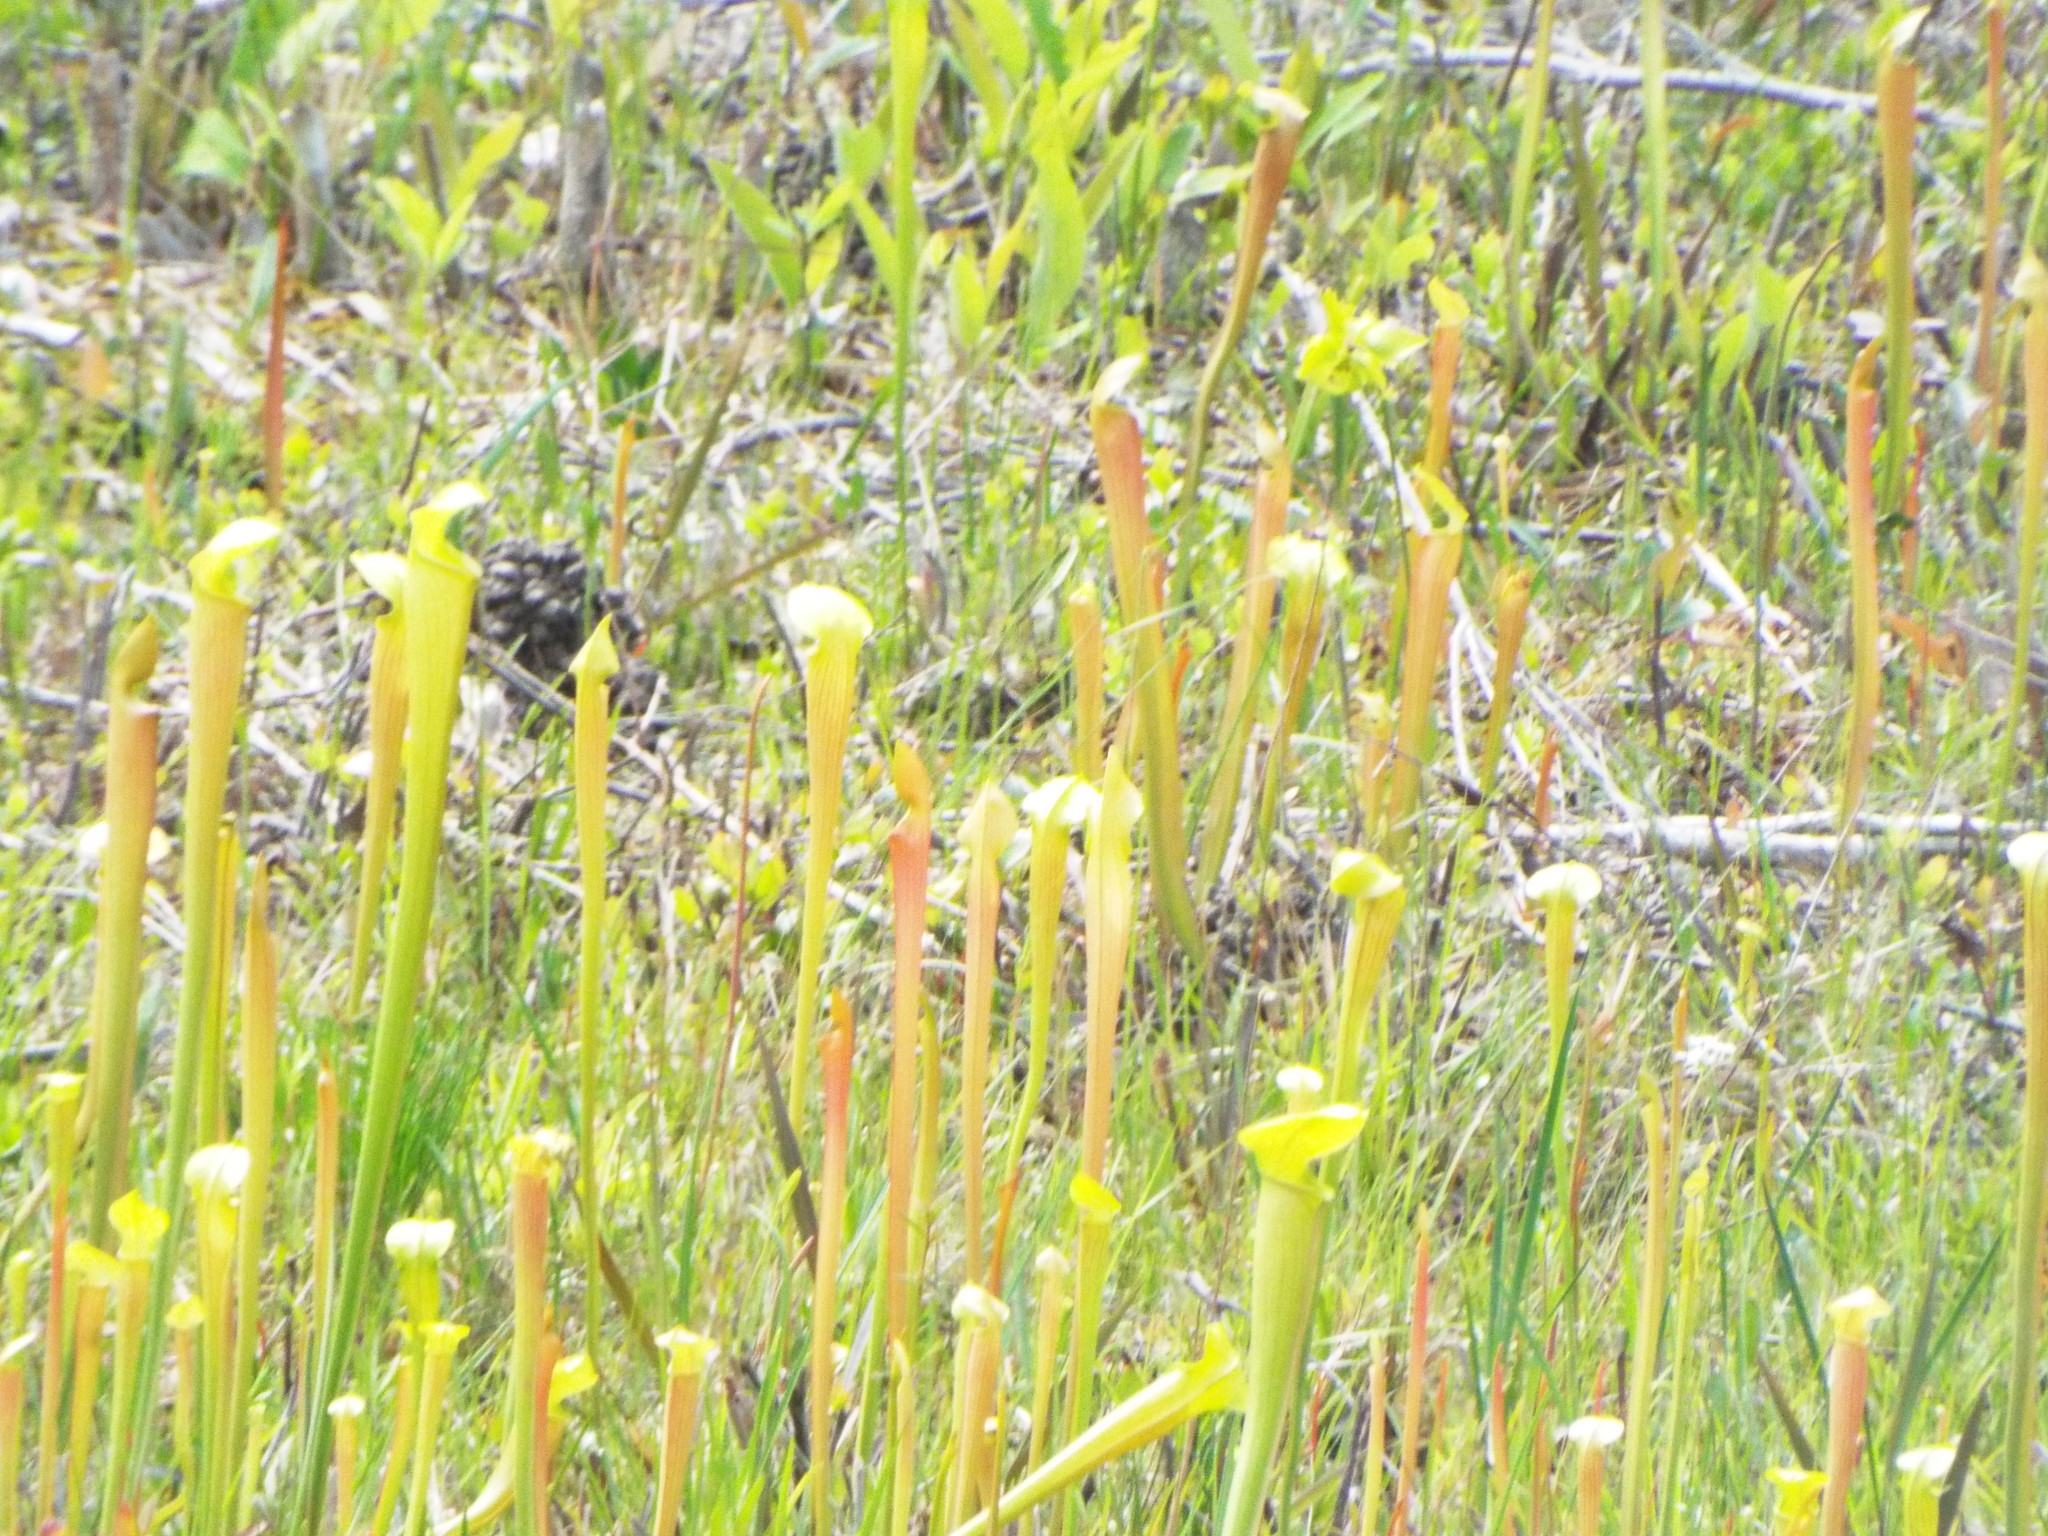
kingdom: Plantae
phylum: Tracheophyta
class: Magnoliopsida
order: Ericales
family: Sarraceniaceae
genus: Sarracenia
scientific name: Sarracenia alata
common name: Yellow trumpets
